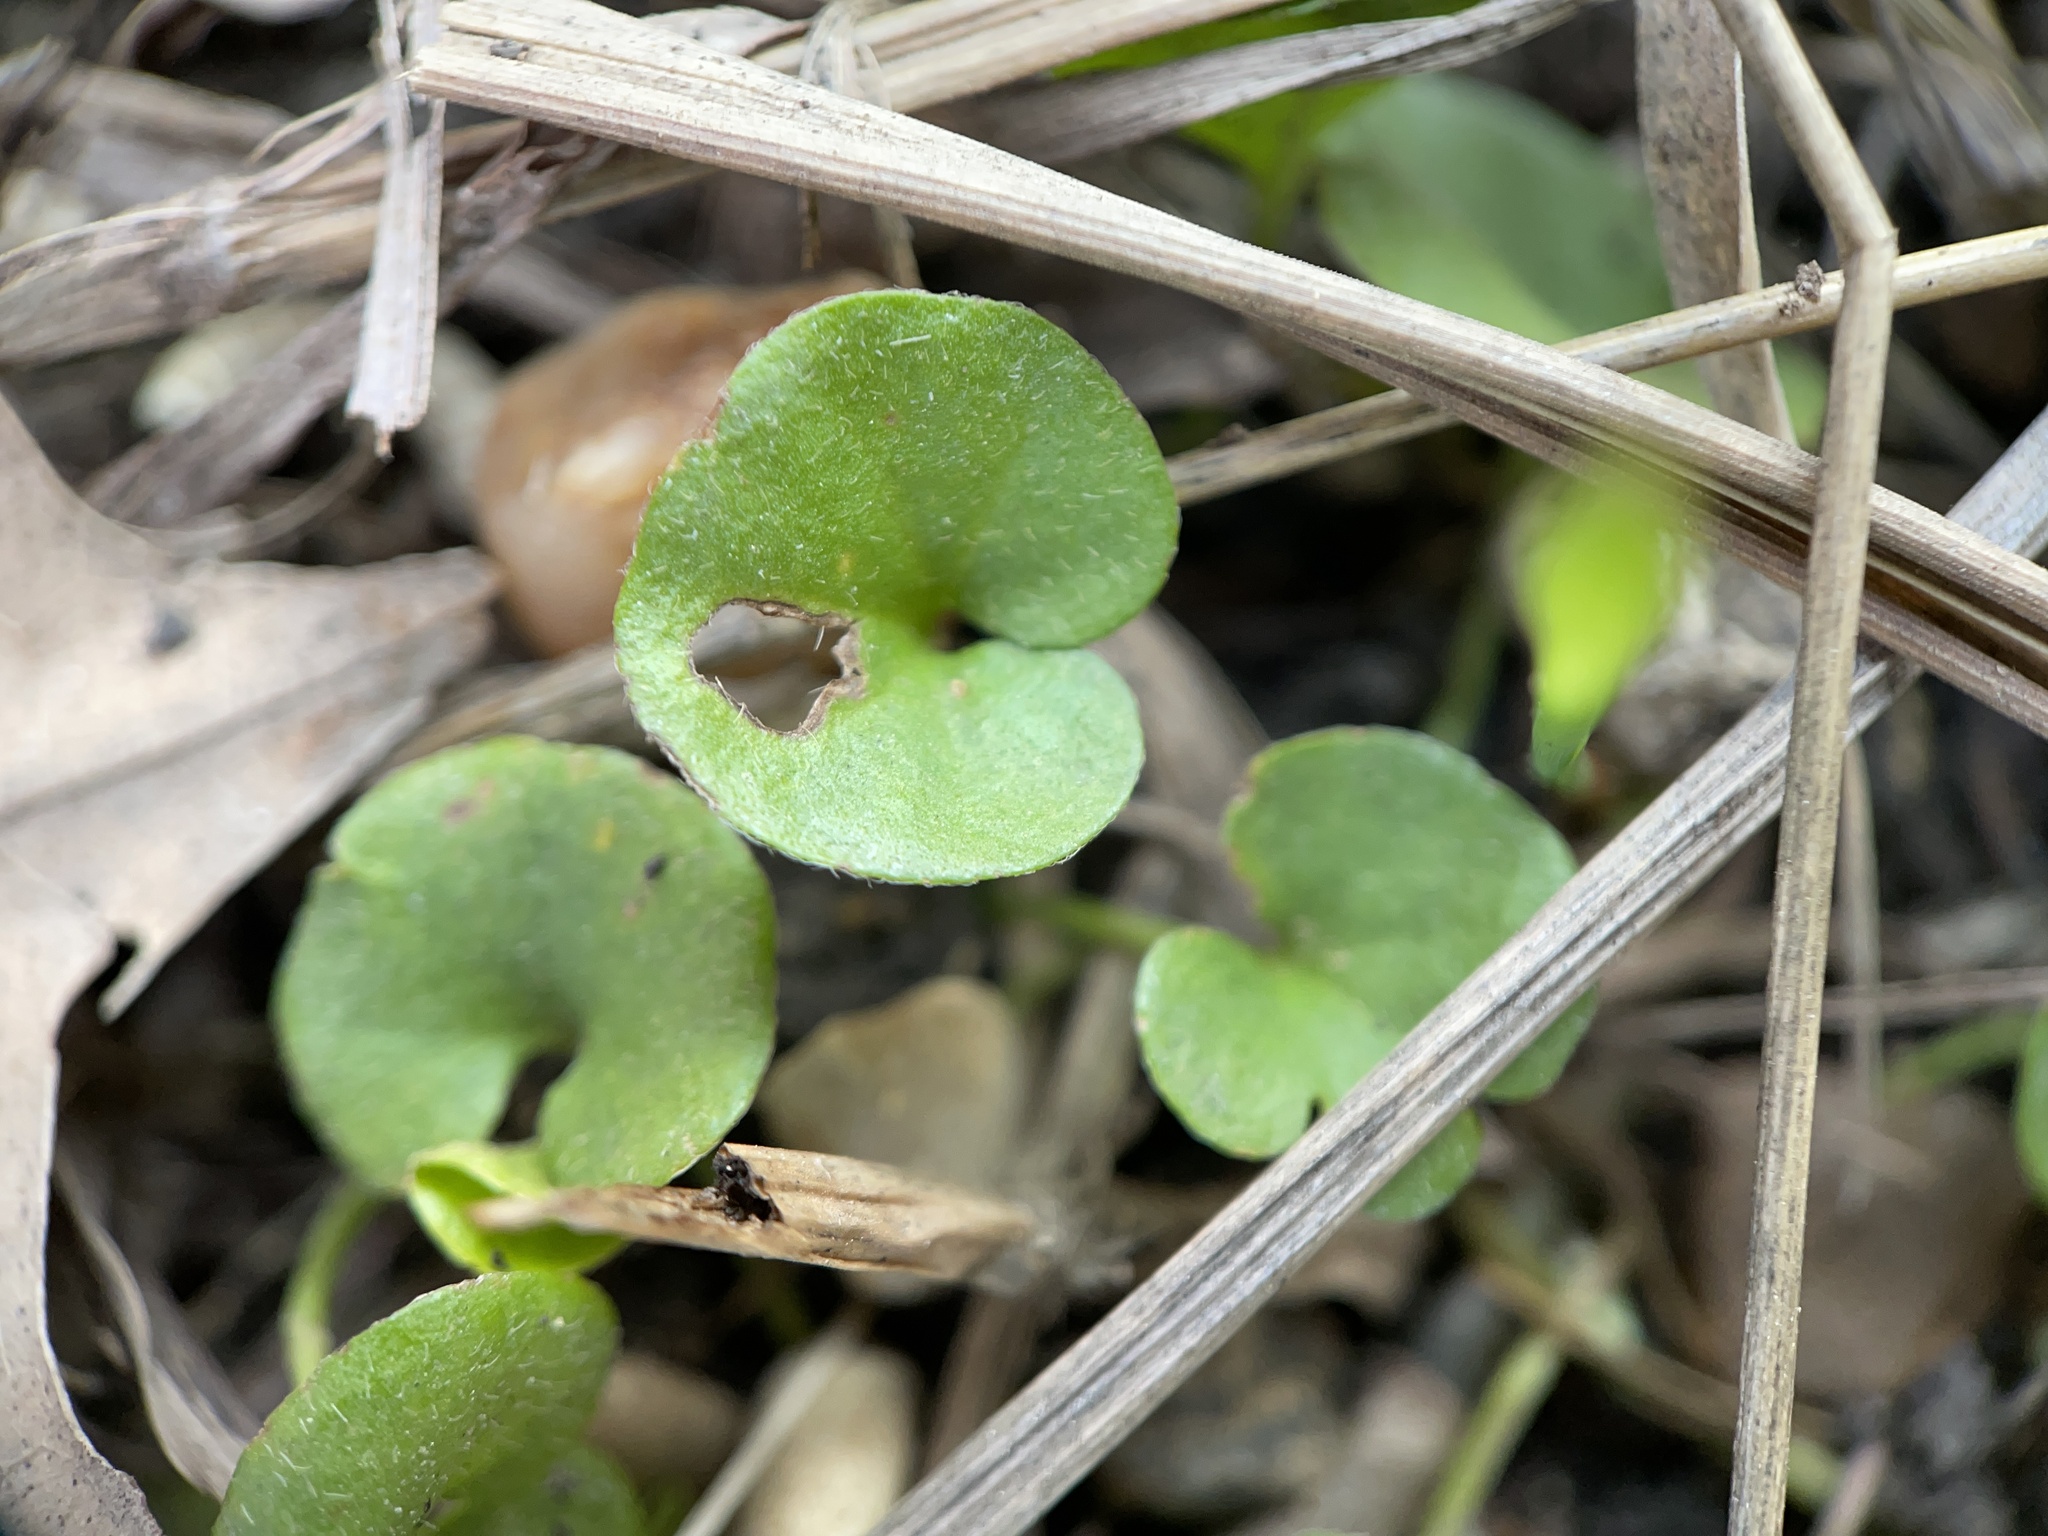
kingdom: Plantae
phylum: Tracheophyta
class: Magnoliopsida
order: Solanales
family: Convolvulaceae
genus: Dichondra
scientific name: Dichondra carolinensis
